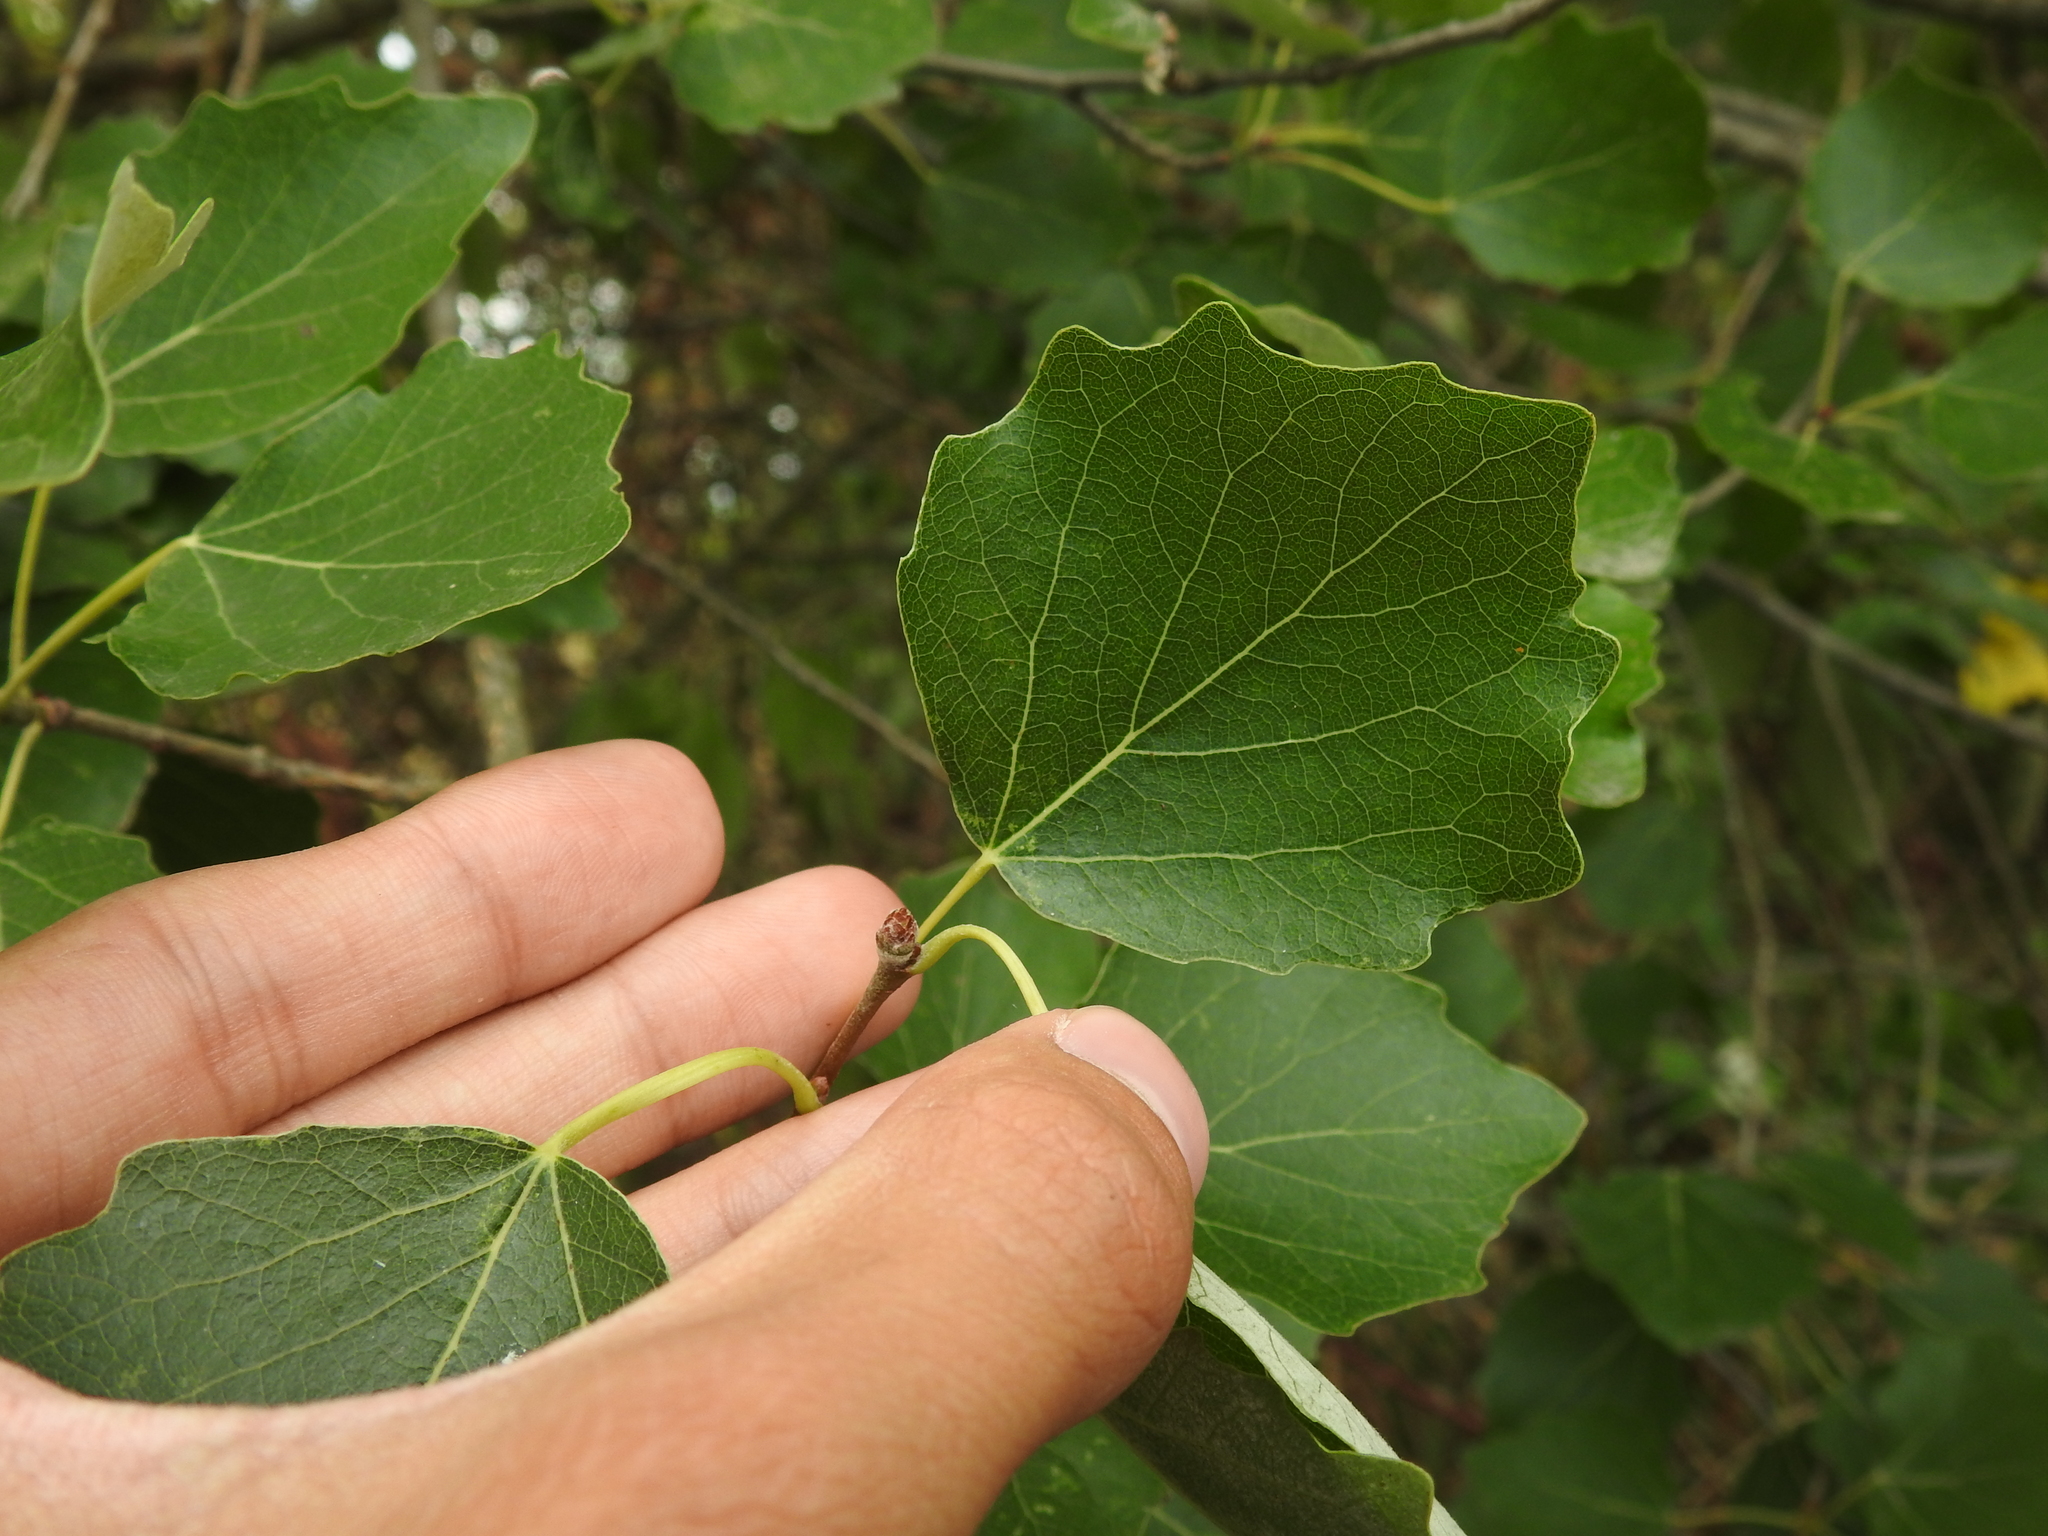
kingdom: Plantae
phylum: Tracheophyta
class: Magnoliopsida
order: Malpighiales
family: Salicaceae
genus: Populus
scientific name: Populus canescens
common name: Gray poplar
